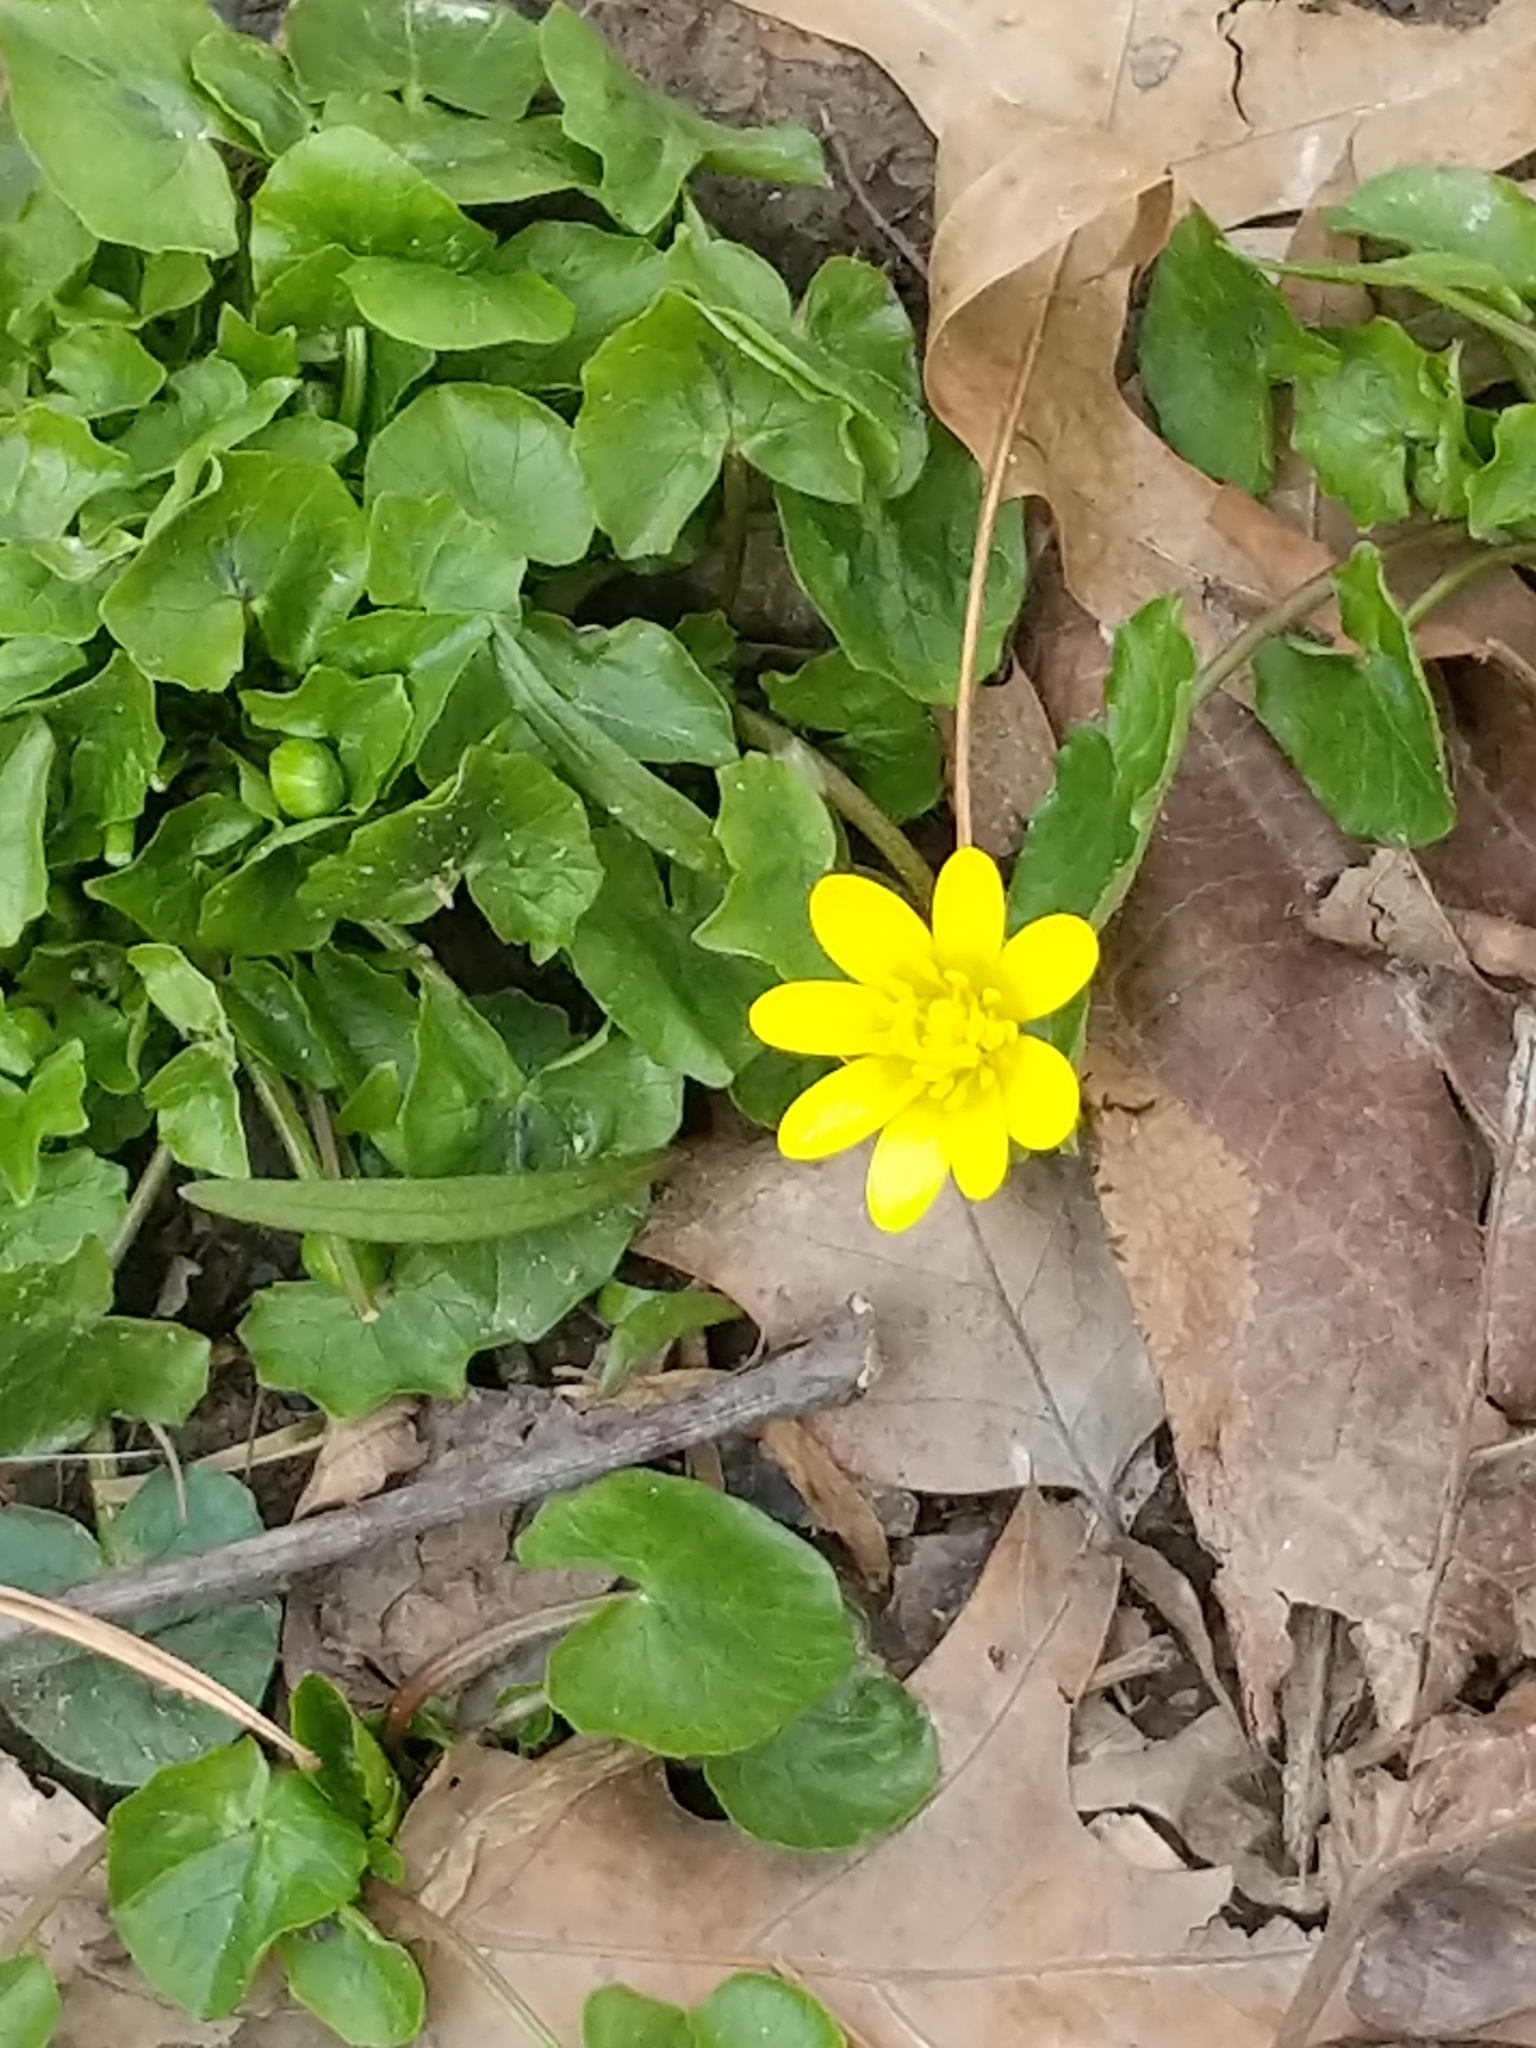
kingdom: Plantae
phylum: Tracheophyta
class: Magnoliopsida
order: Ranunculales
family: Ranunculaceae
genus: Ficaria
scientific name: Ficaria verna
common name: Lesser celandine
